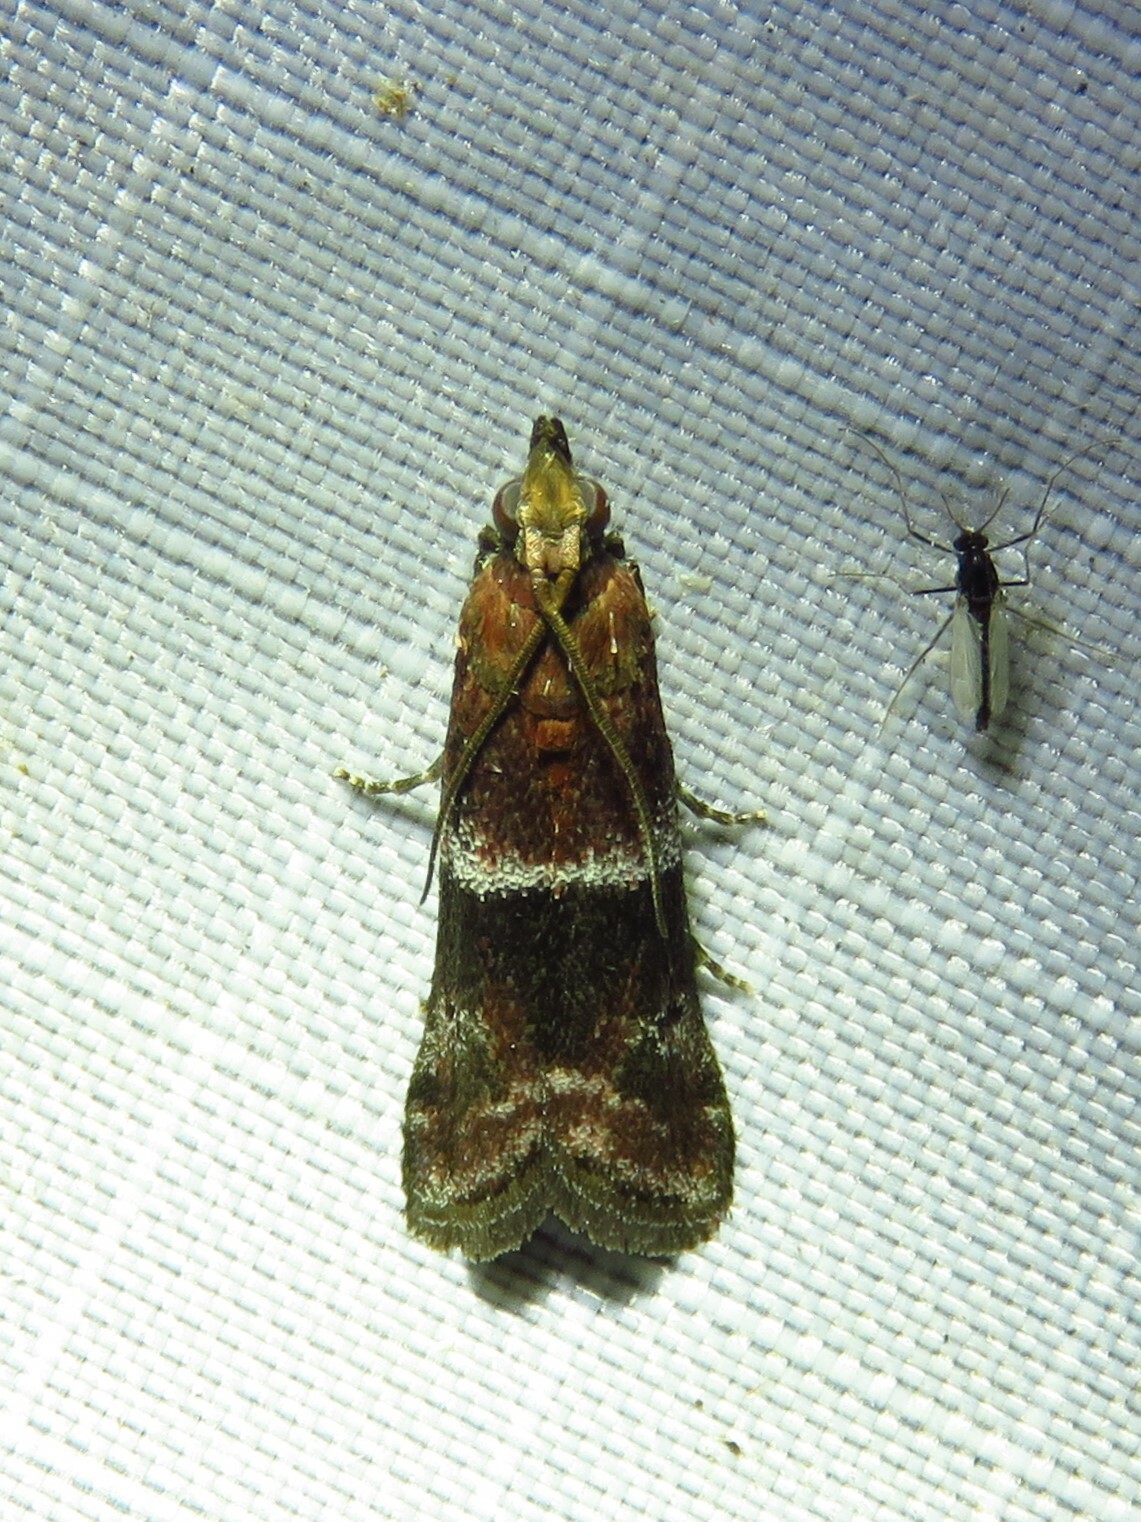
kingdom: Animalia
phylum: Arthropoda
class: Insecta
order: Lepidoptera
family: Pyralidae
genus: Moodna
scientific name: Moodna ostrinella
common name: Darker moodna moth
